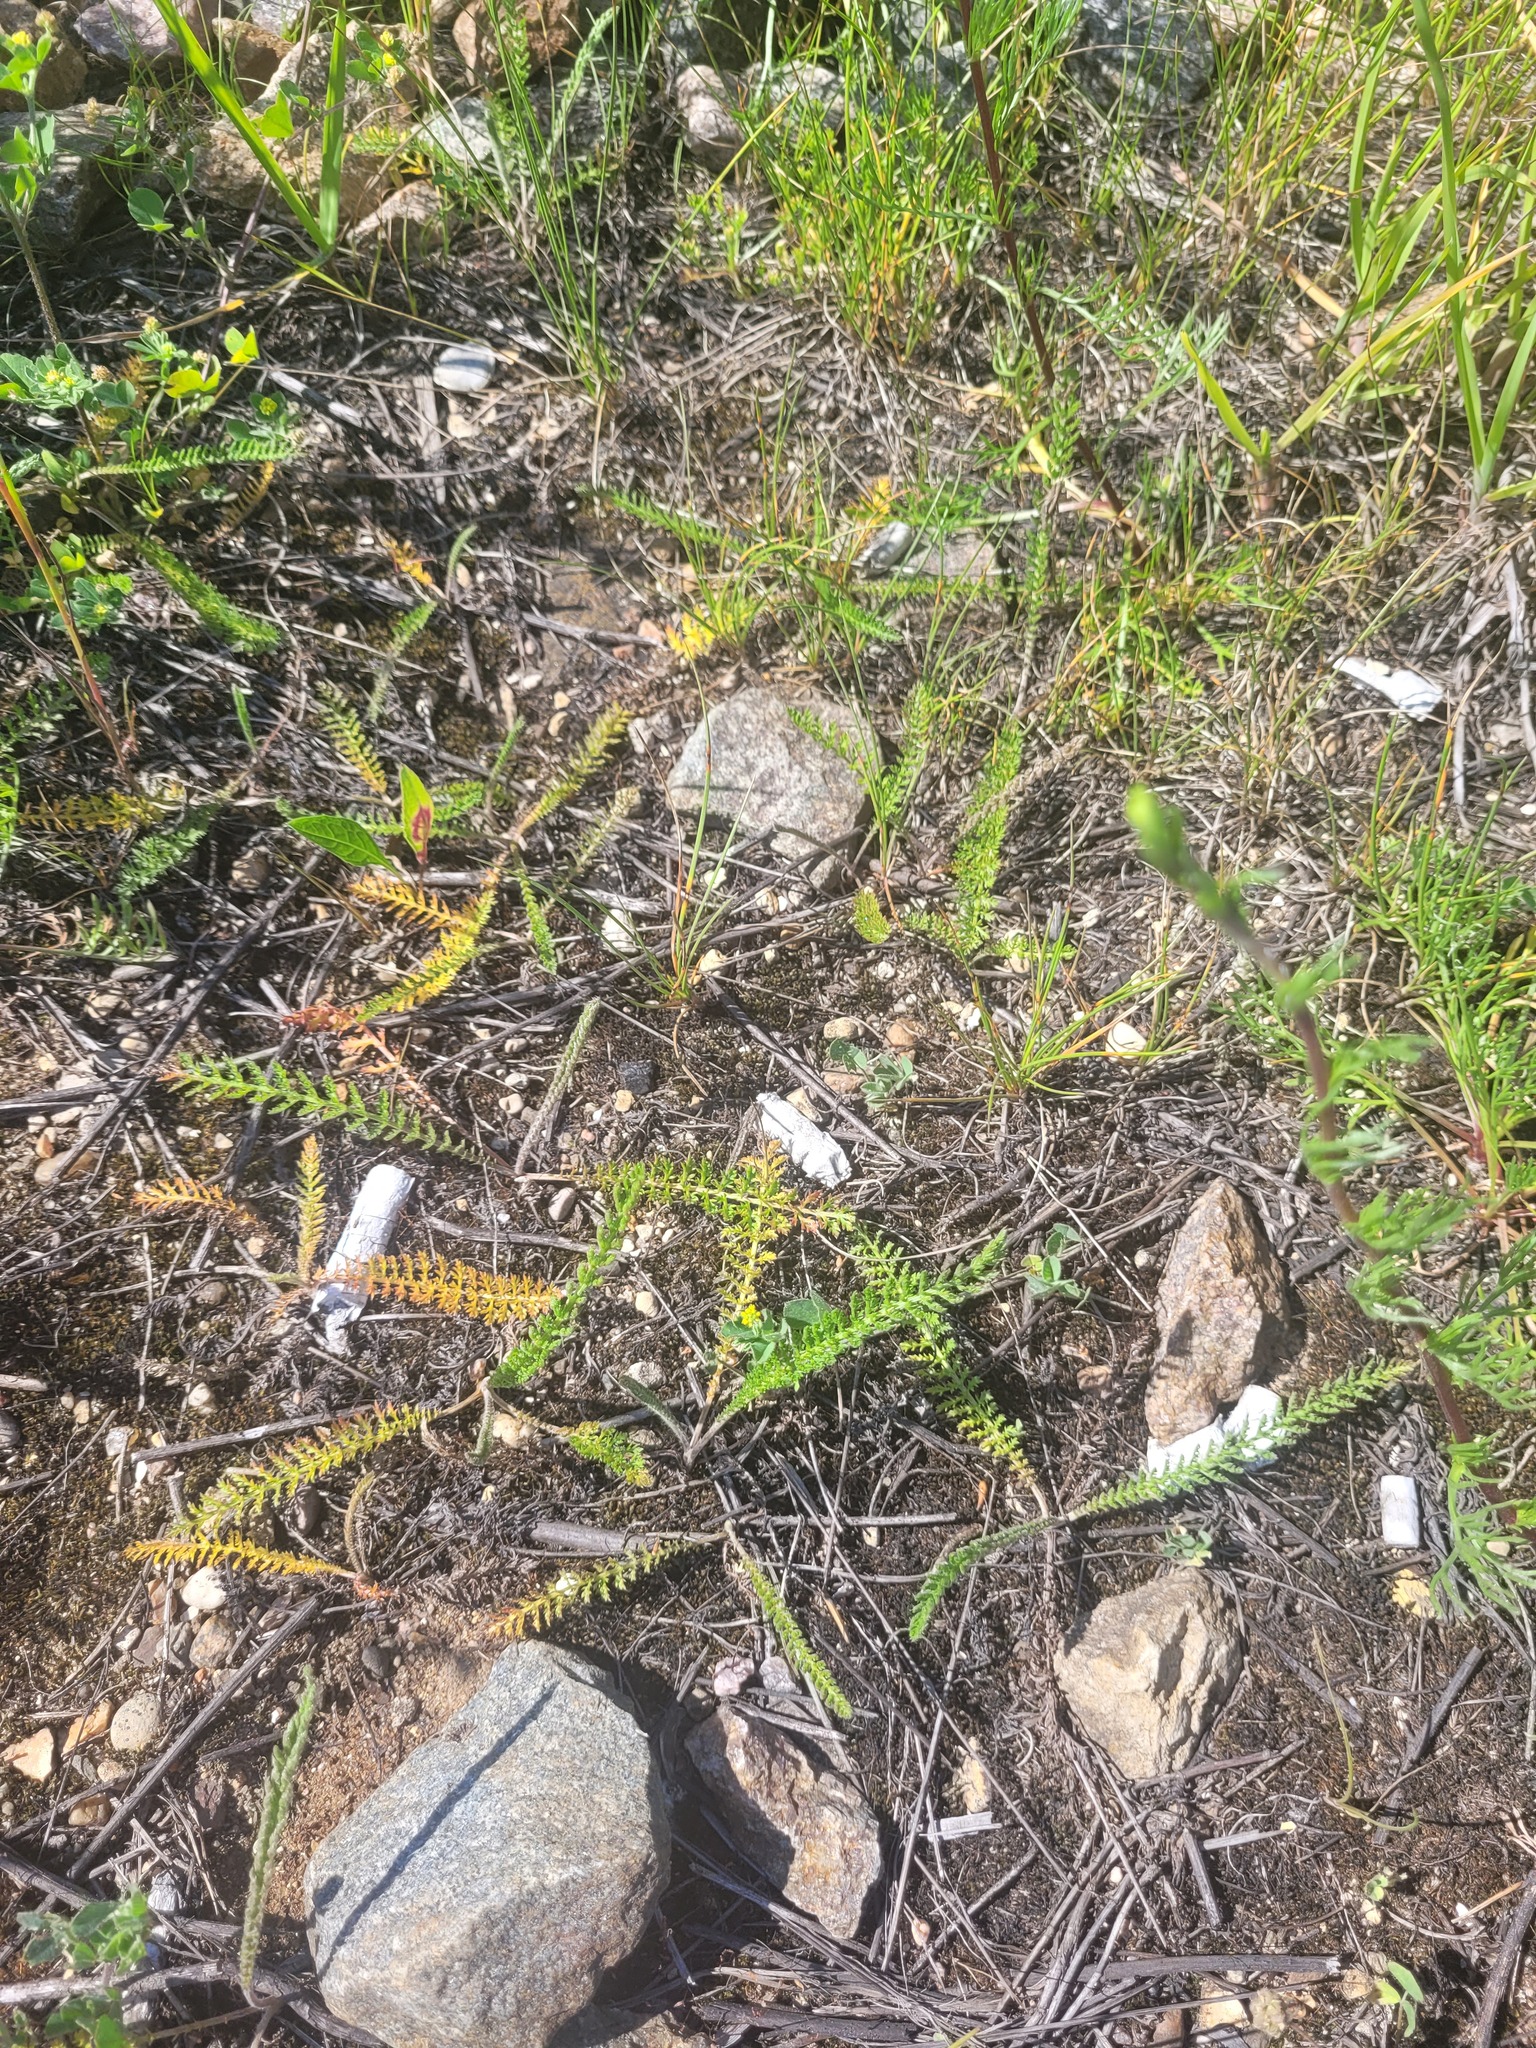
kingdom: Plantae
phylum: Tracheophyta
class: Magnoliopsida
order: Asterales
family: Asteraceae
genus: Achillea
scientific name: Achillea millefolium
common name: Yarrow
